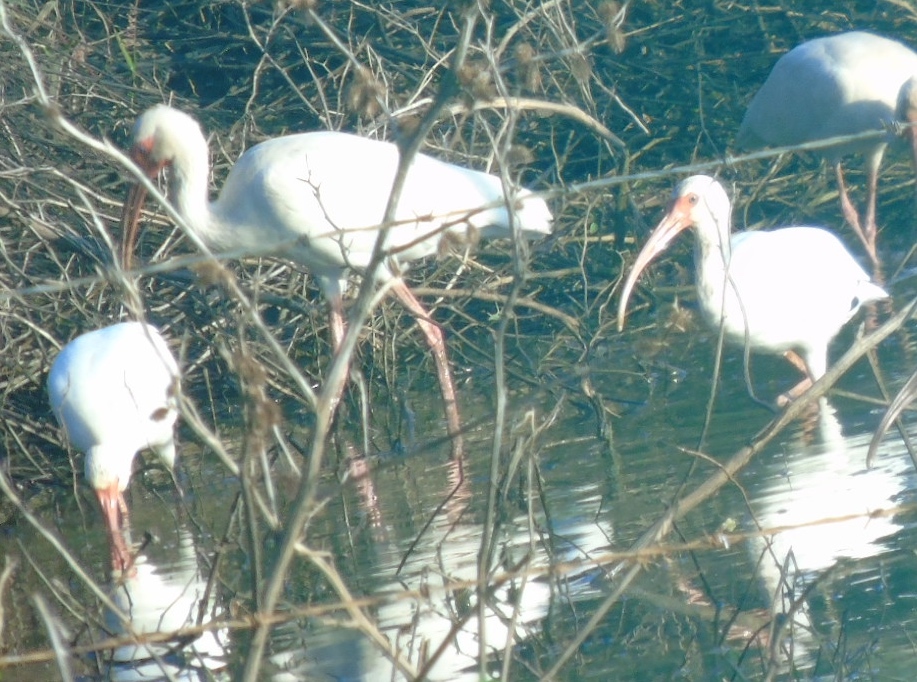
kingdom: Animalia
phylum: Chordata
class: Aves
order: Pelecaniformes
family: Threskiornithidae
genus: Eudocimus
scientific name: Eudocimus albus
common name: White ibis
